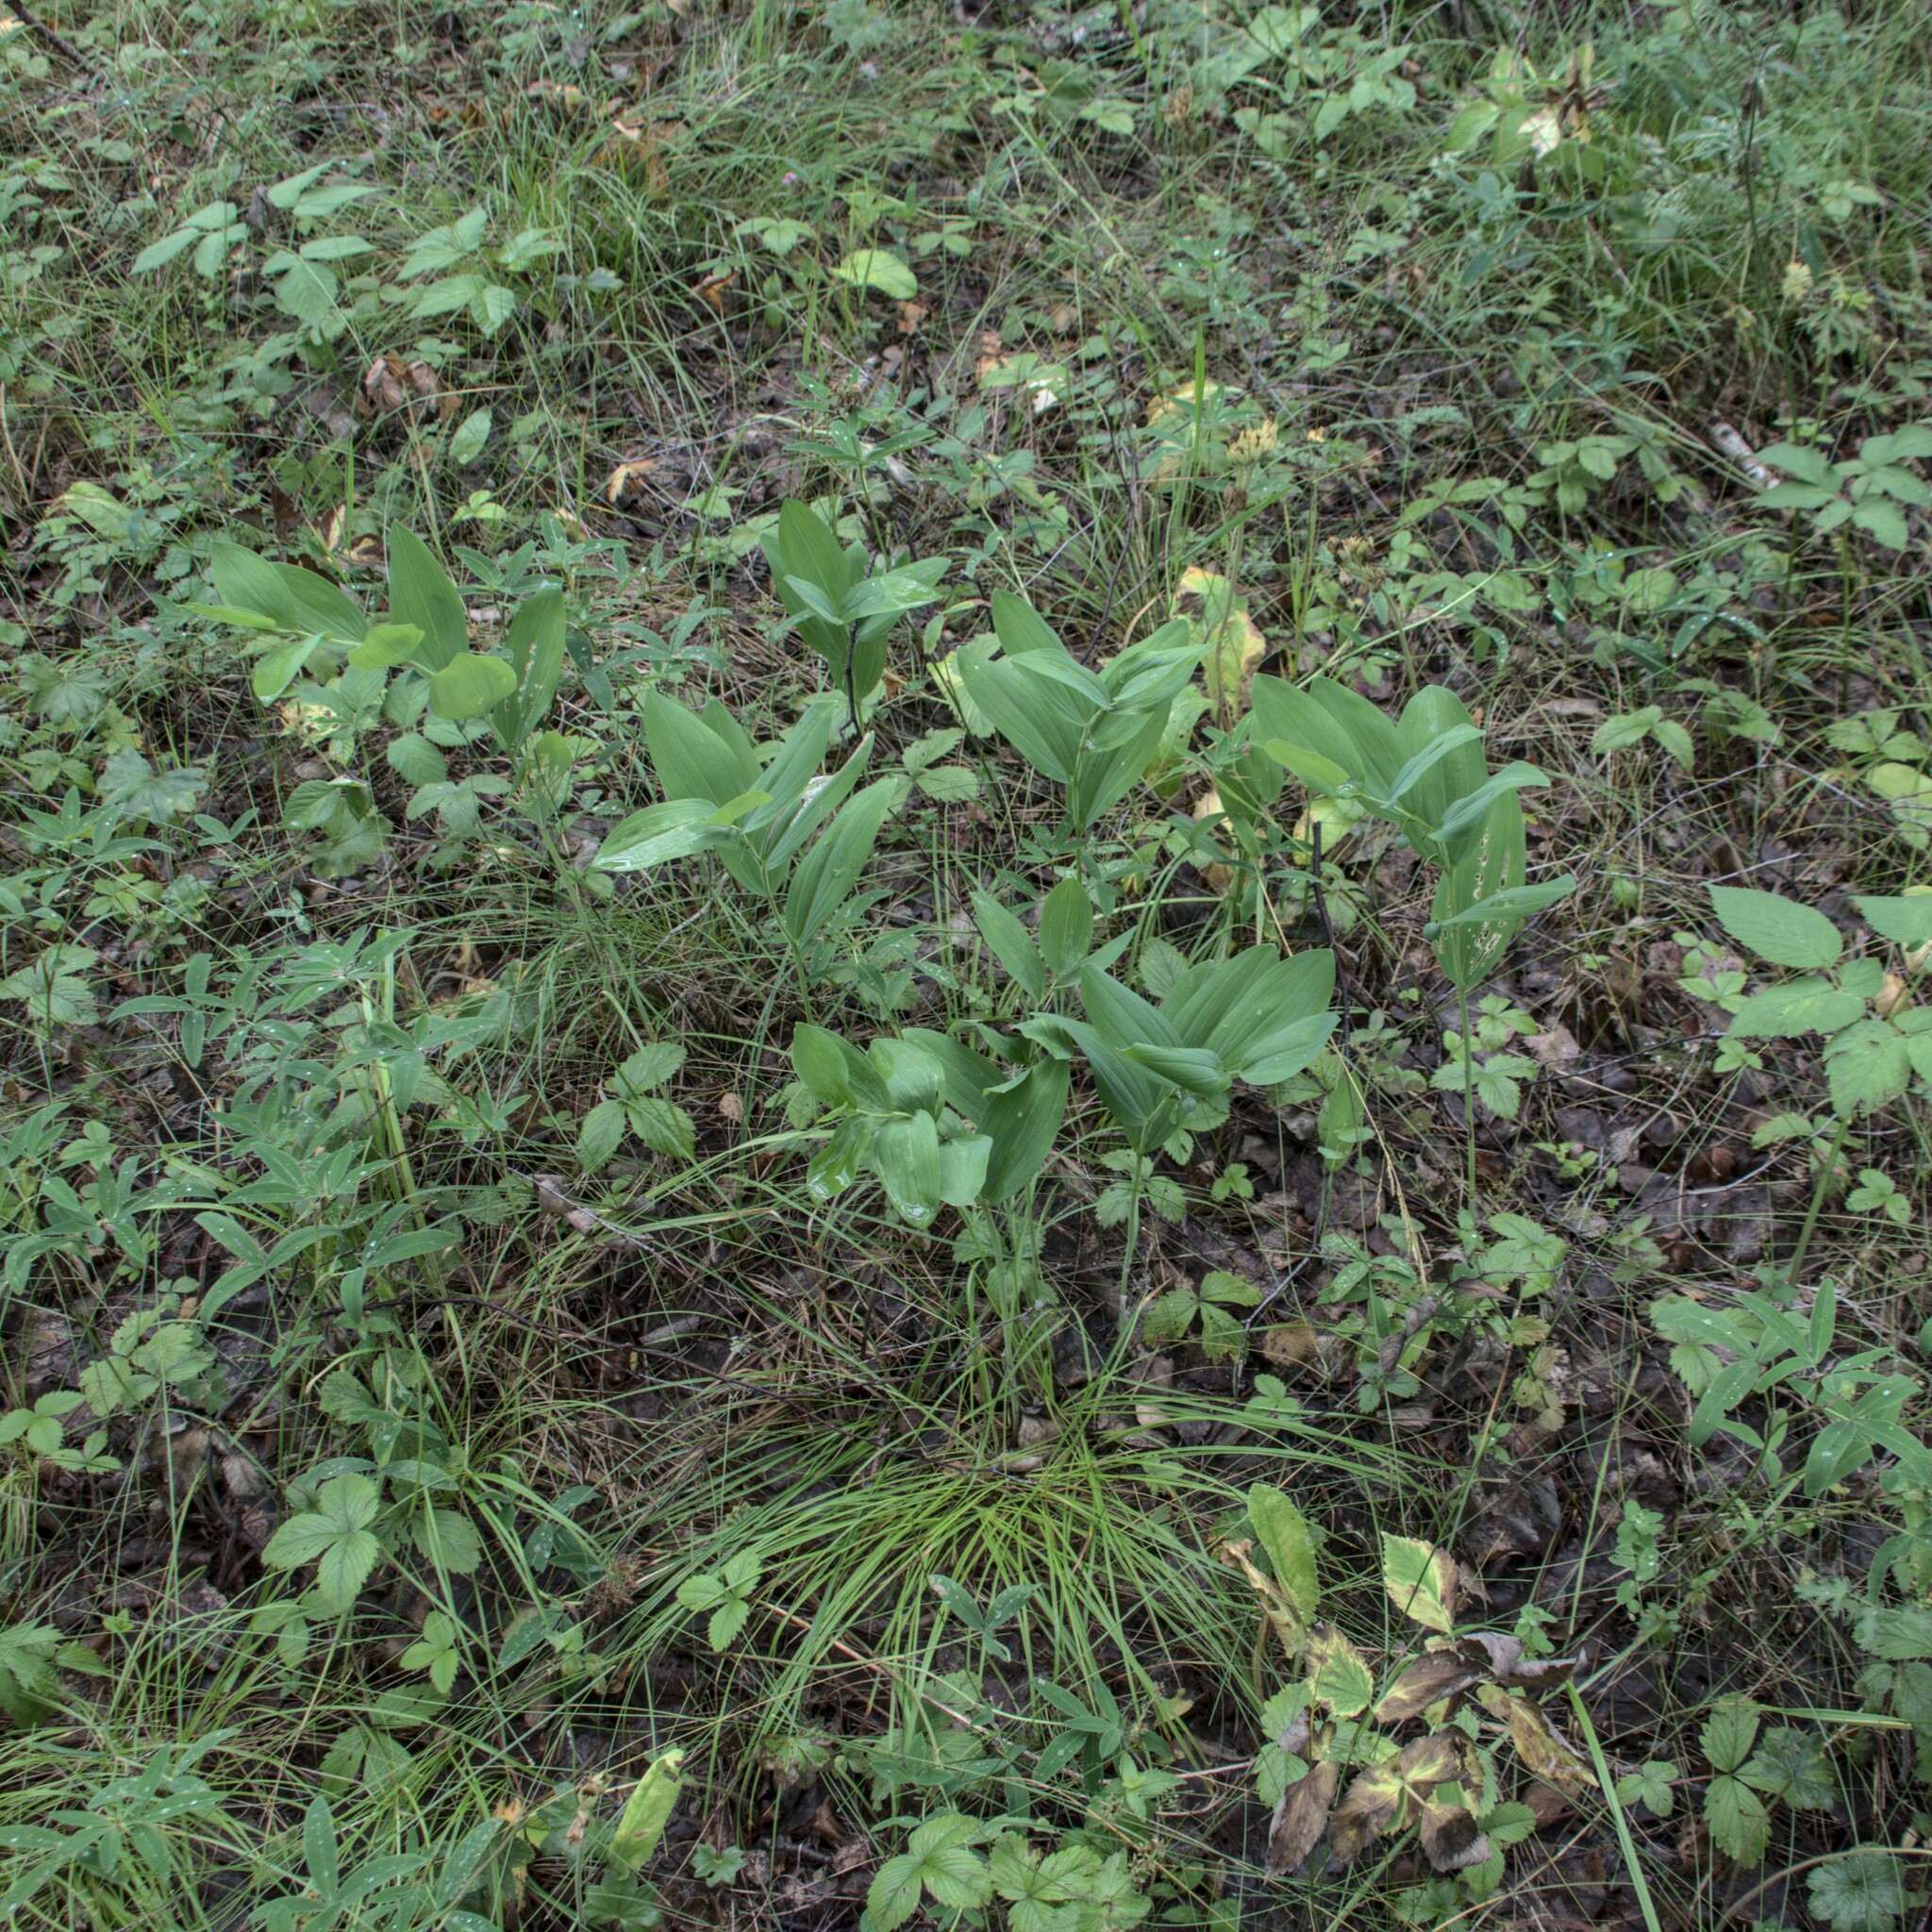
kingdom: Plantae
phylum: Tracheophyta
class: Liliopsida
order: Asparagales
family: Asparagaceae
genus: Polygonatum
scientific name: Polygonatum odoratum
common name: Angular solomon's-seal
